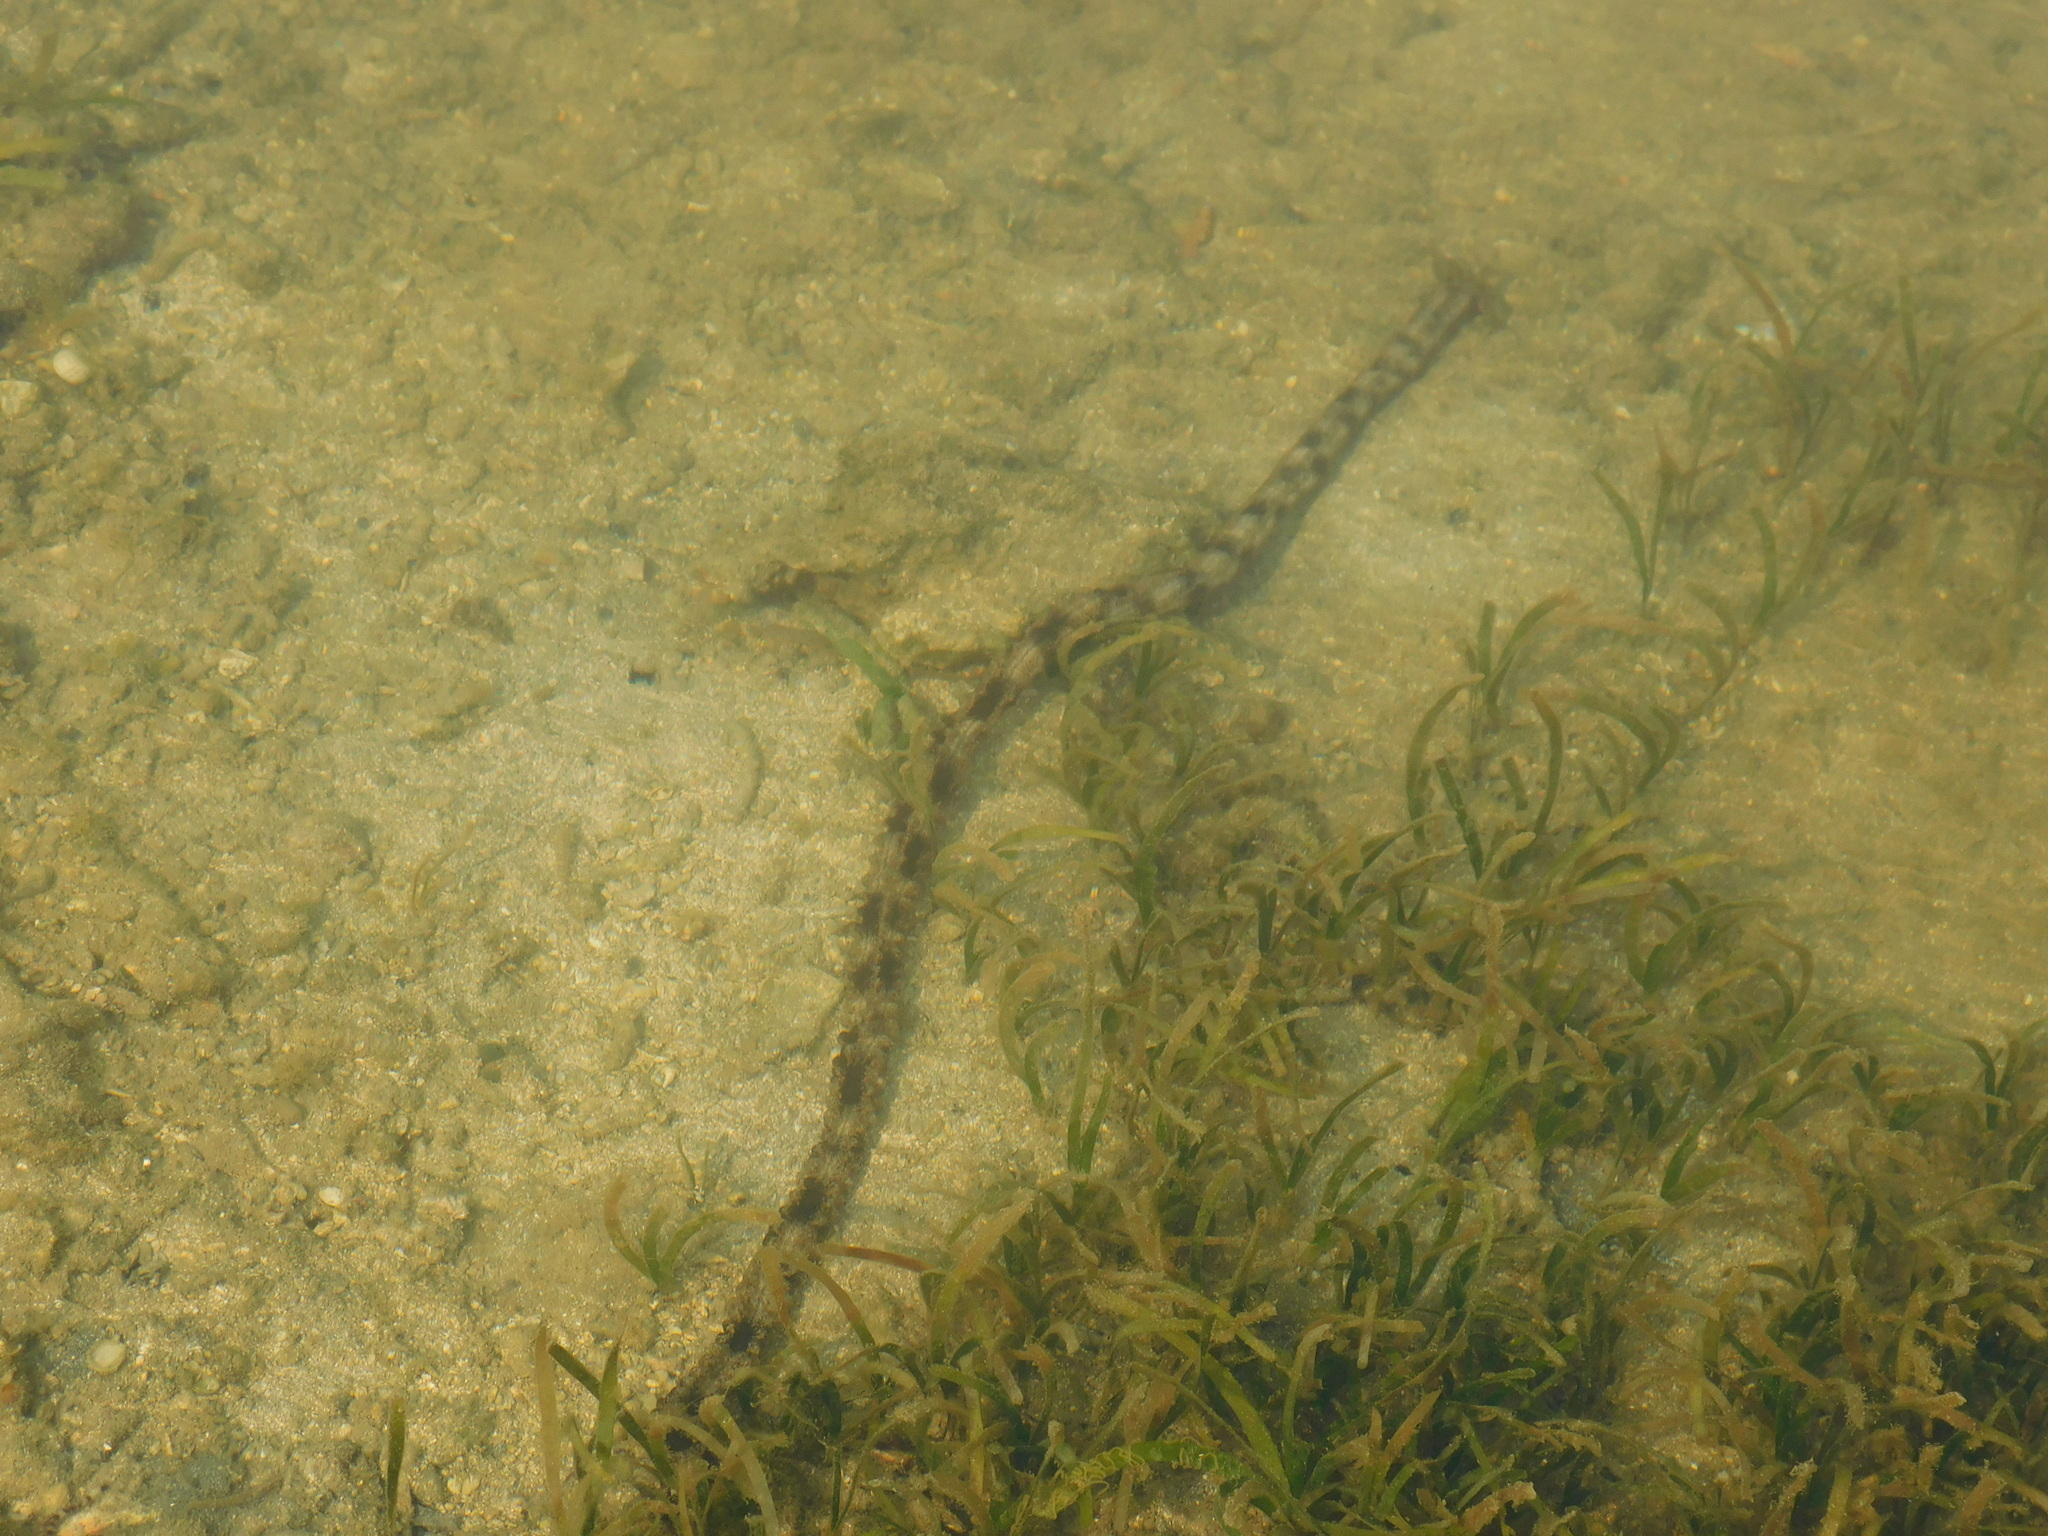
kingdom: Animalia
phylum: Echinodermata
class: Holothuroidea
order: Apodida
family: Synaptidae
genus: Synapta
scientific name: Synapta maculata
